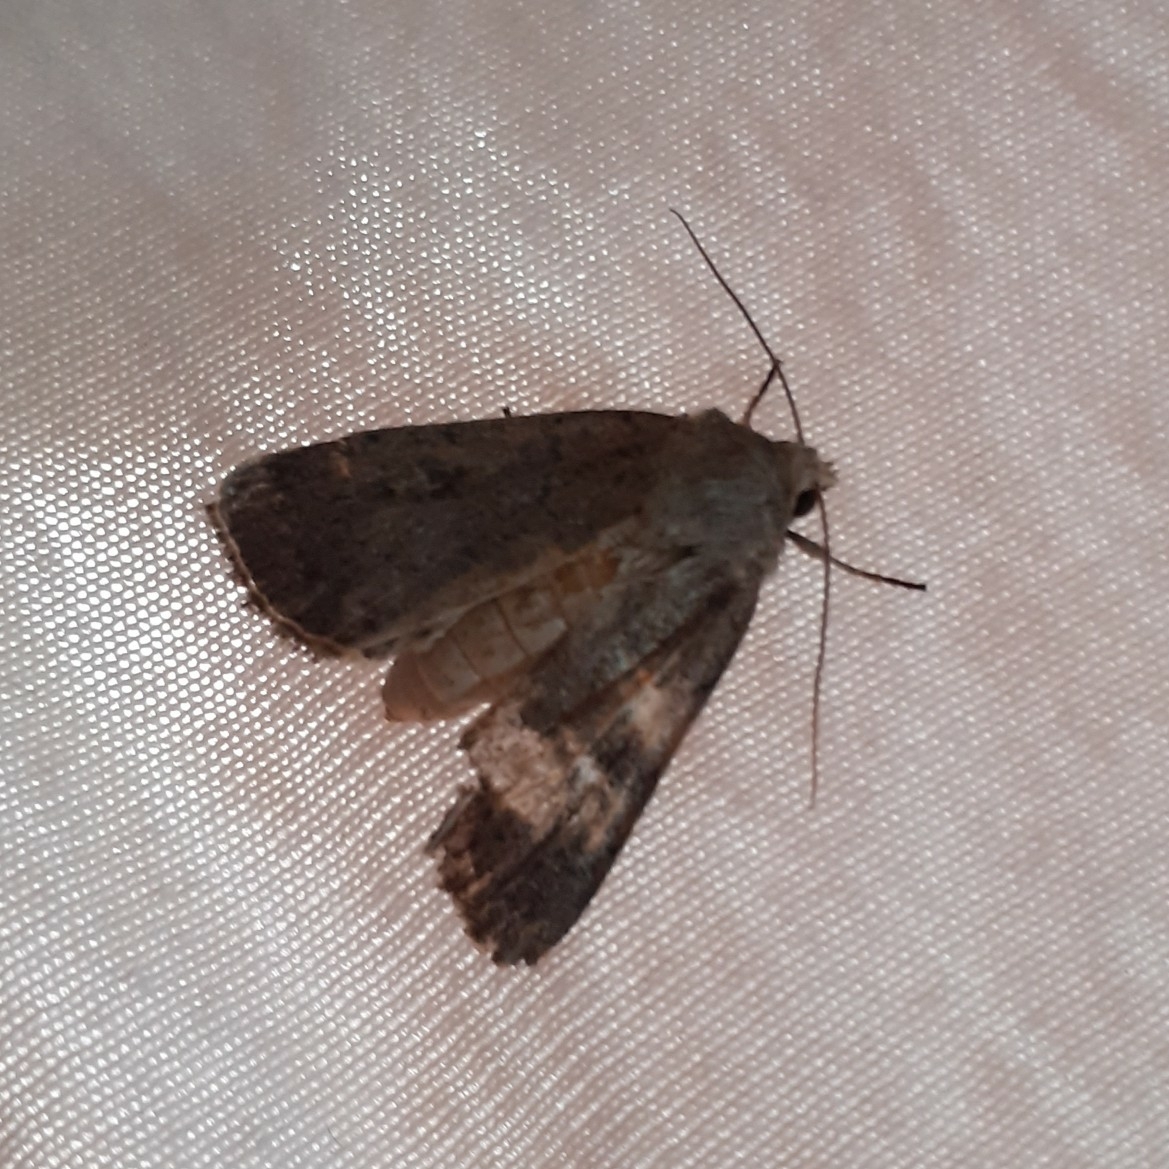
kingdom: Animalia
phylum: Arthropoda
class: Insecta
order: Lepidoptera
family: Noctuidae
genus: Xestia
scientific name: Xestia xanthographa
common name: Square-spot rustic
